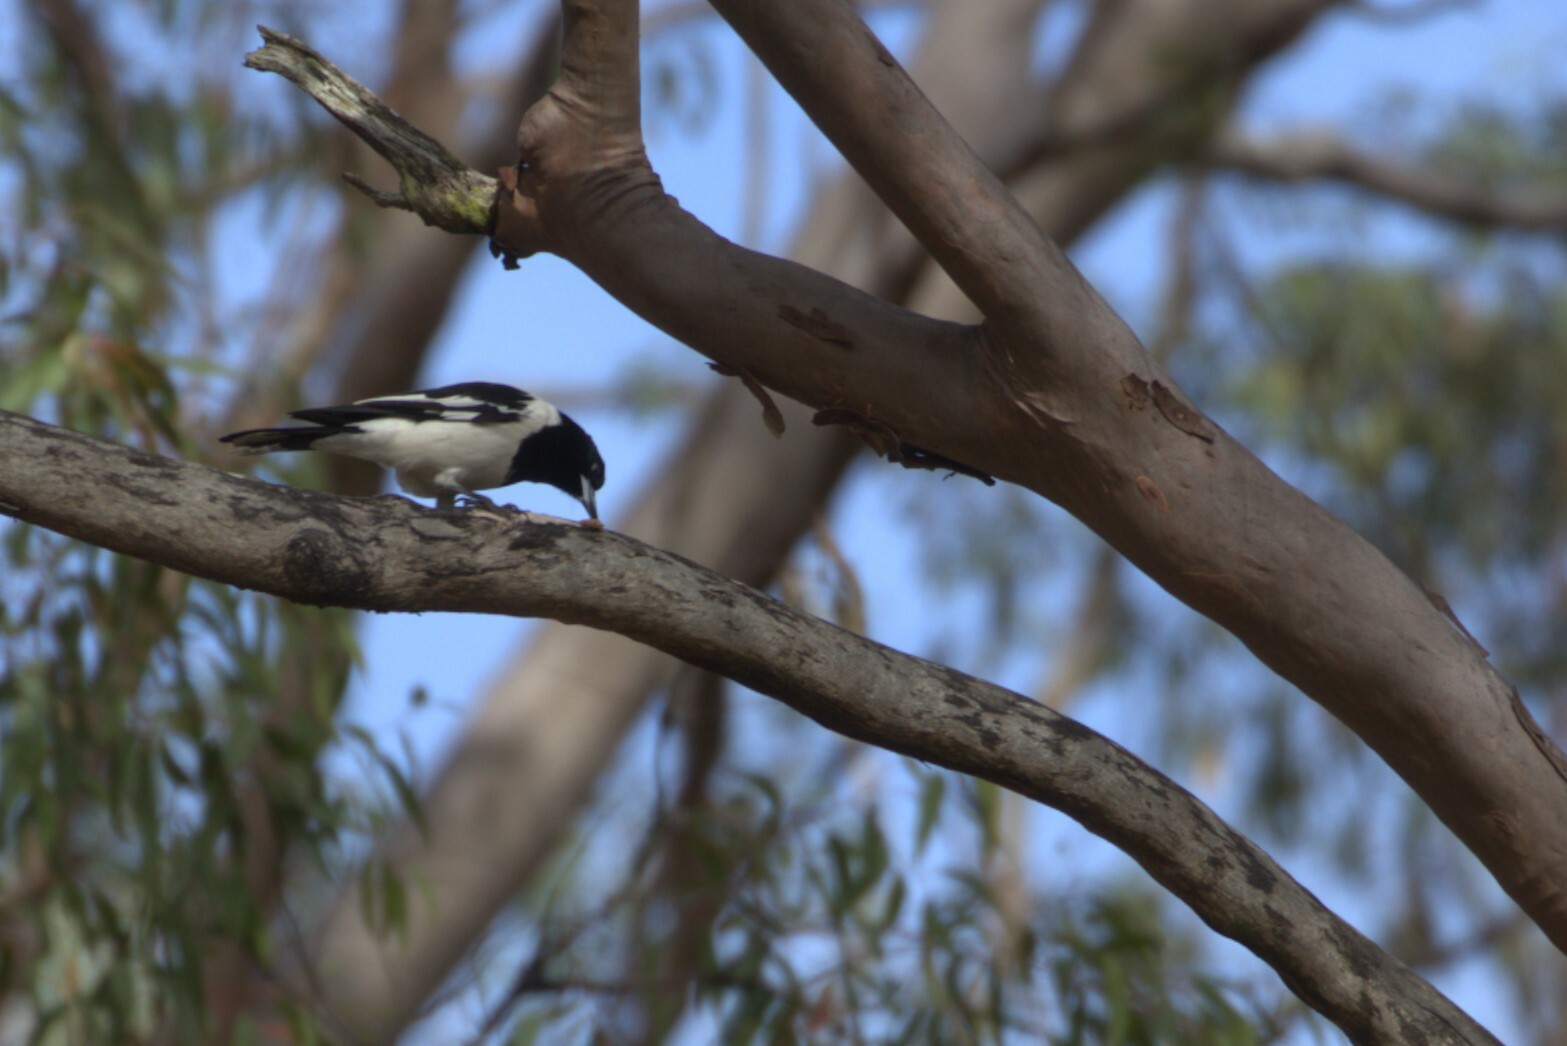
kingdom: Animalia
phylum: Chordata
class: Aves
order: Passeriformes
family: Cracticidae
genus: Cracticus
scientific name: Cracticus nigrogularis
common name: Pied butcherbird
